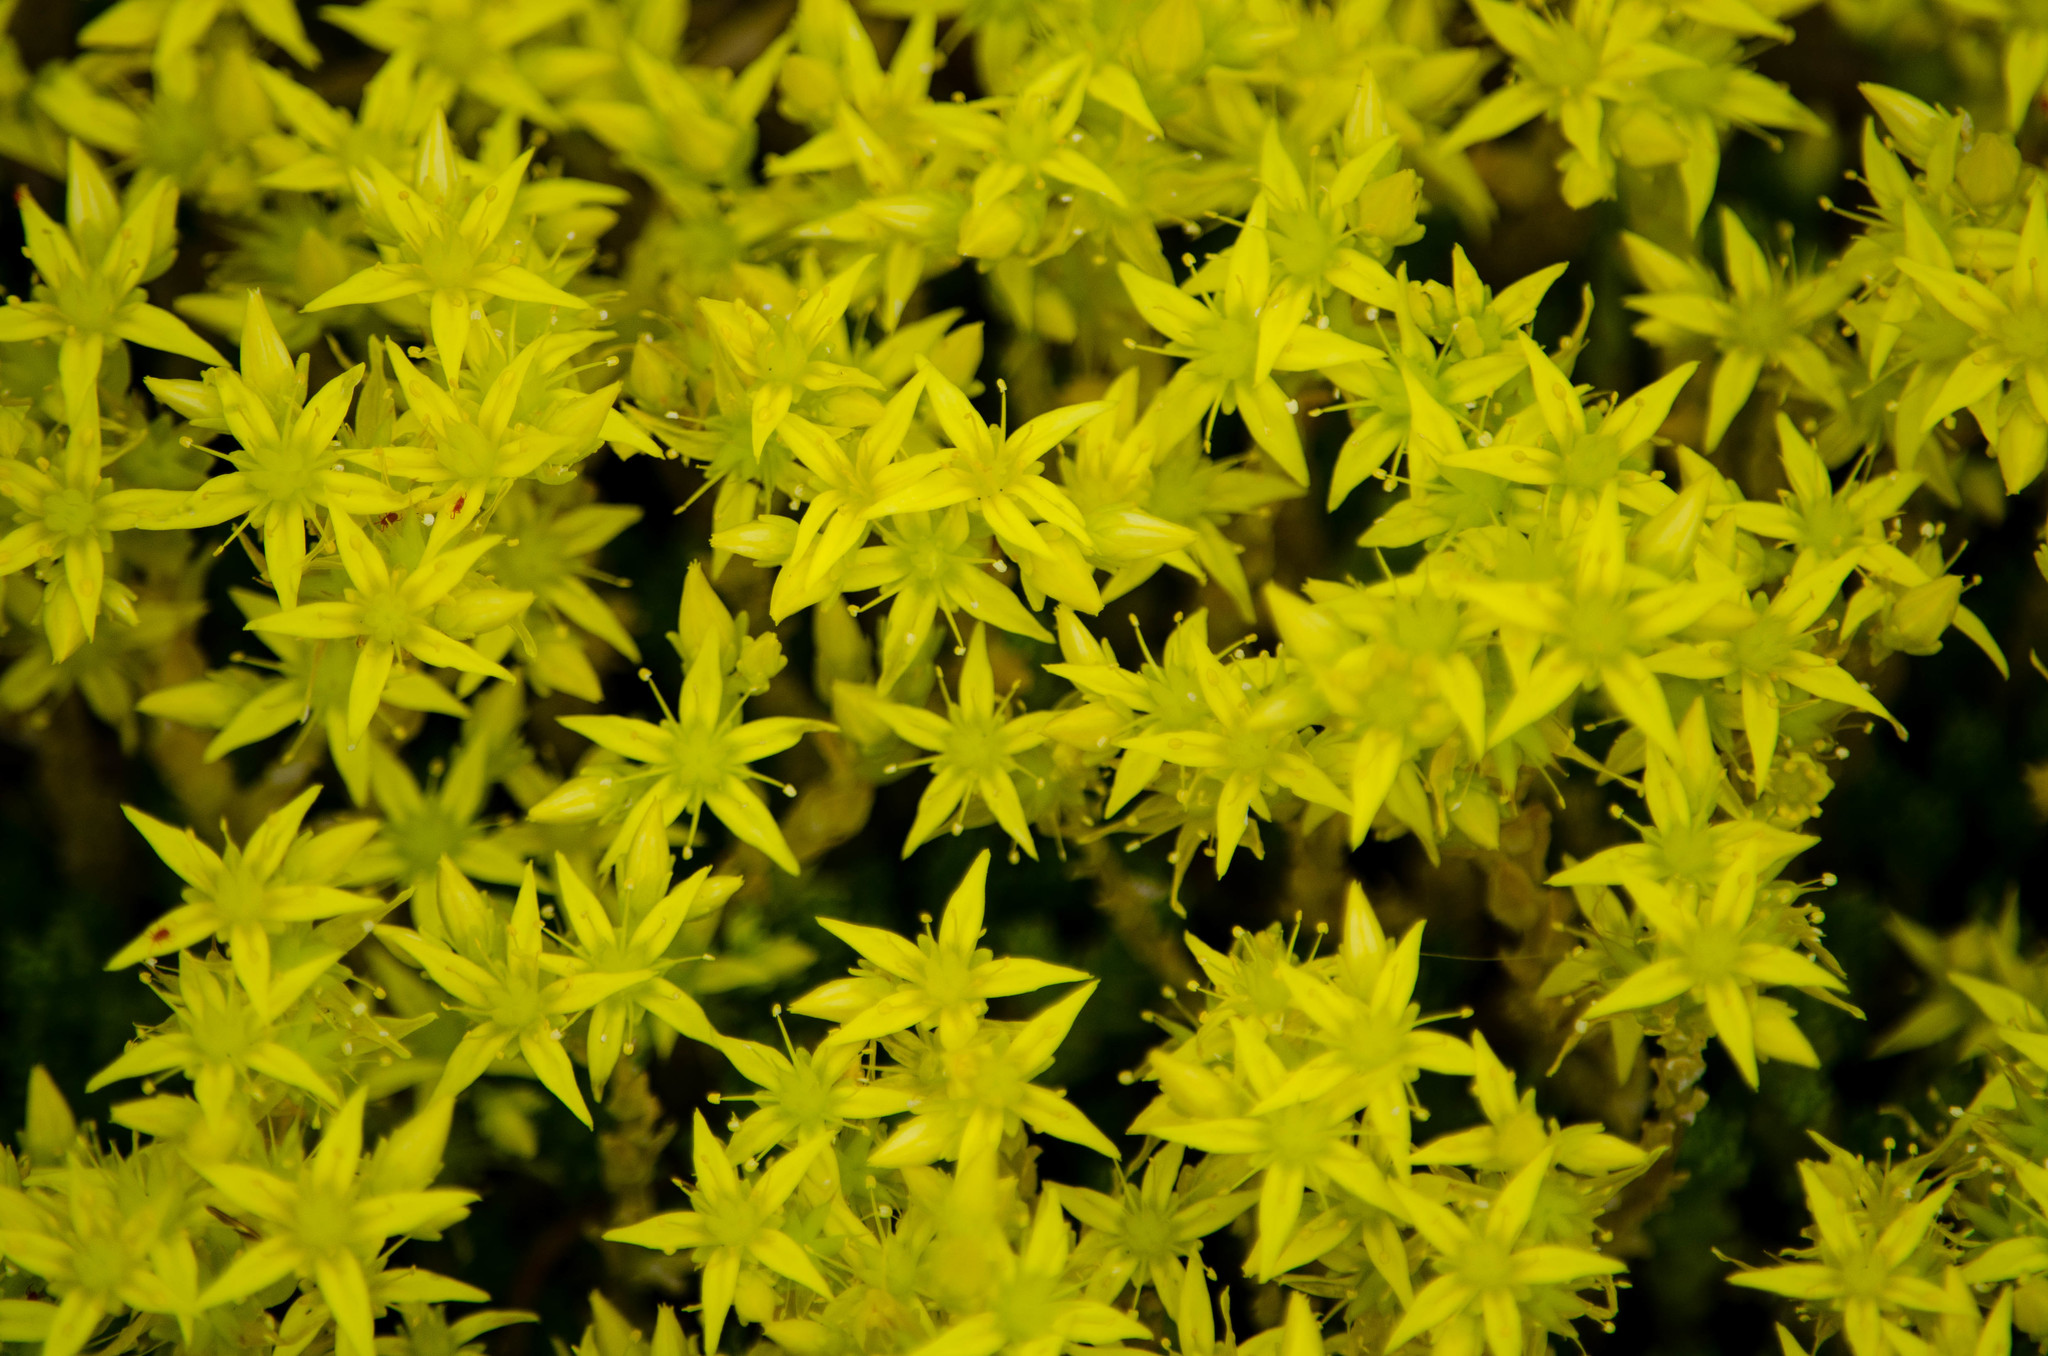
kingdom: Plantae
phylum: Tracheophyta
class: Magnoliopsida
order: Saxifragales
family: Crassulaceae
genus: Sedum
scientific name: Sedum acre
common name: Biting stonecrop
